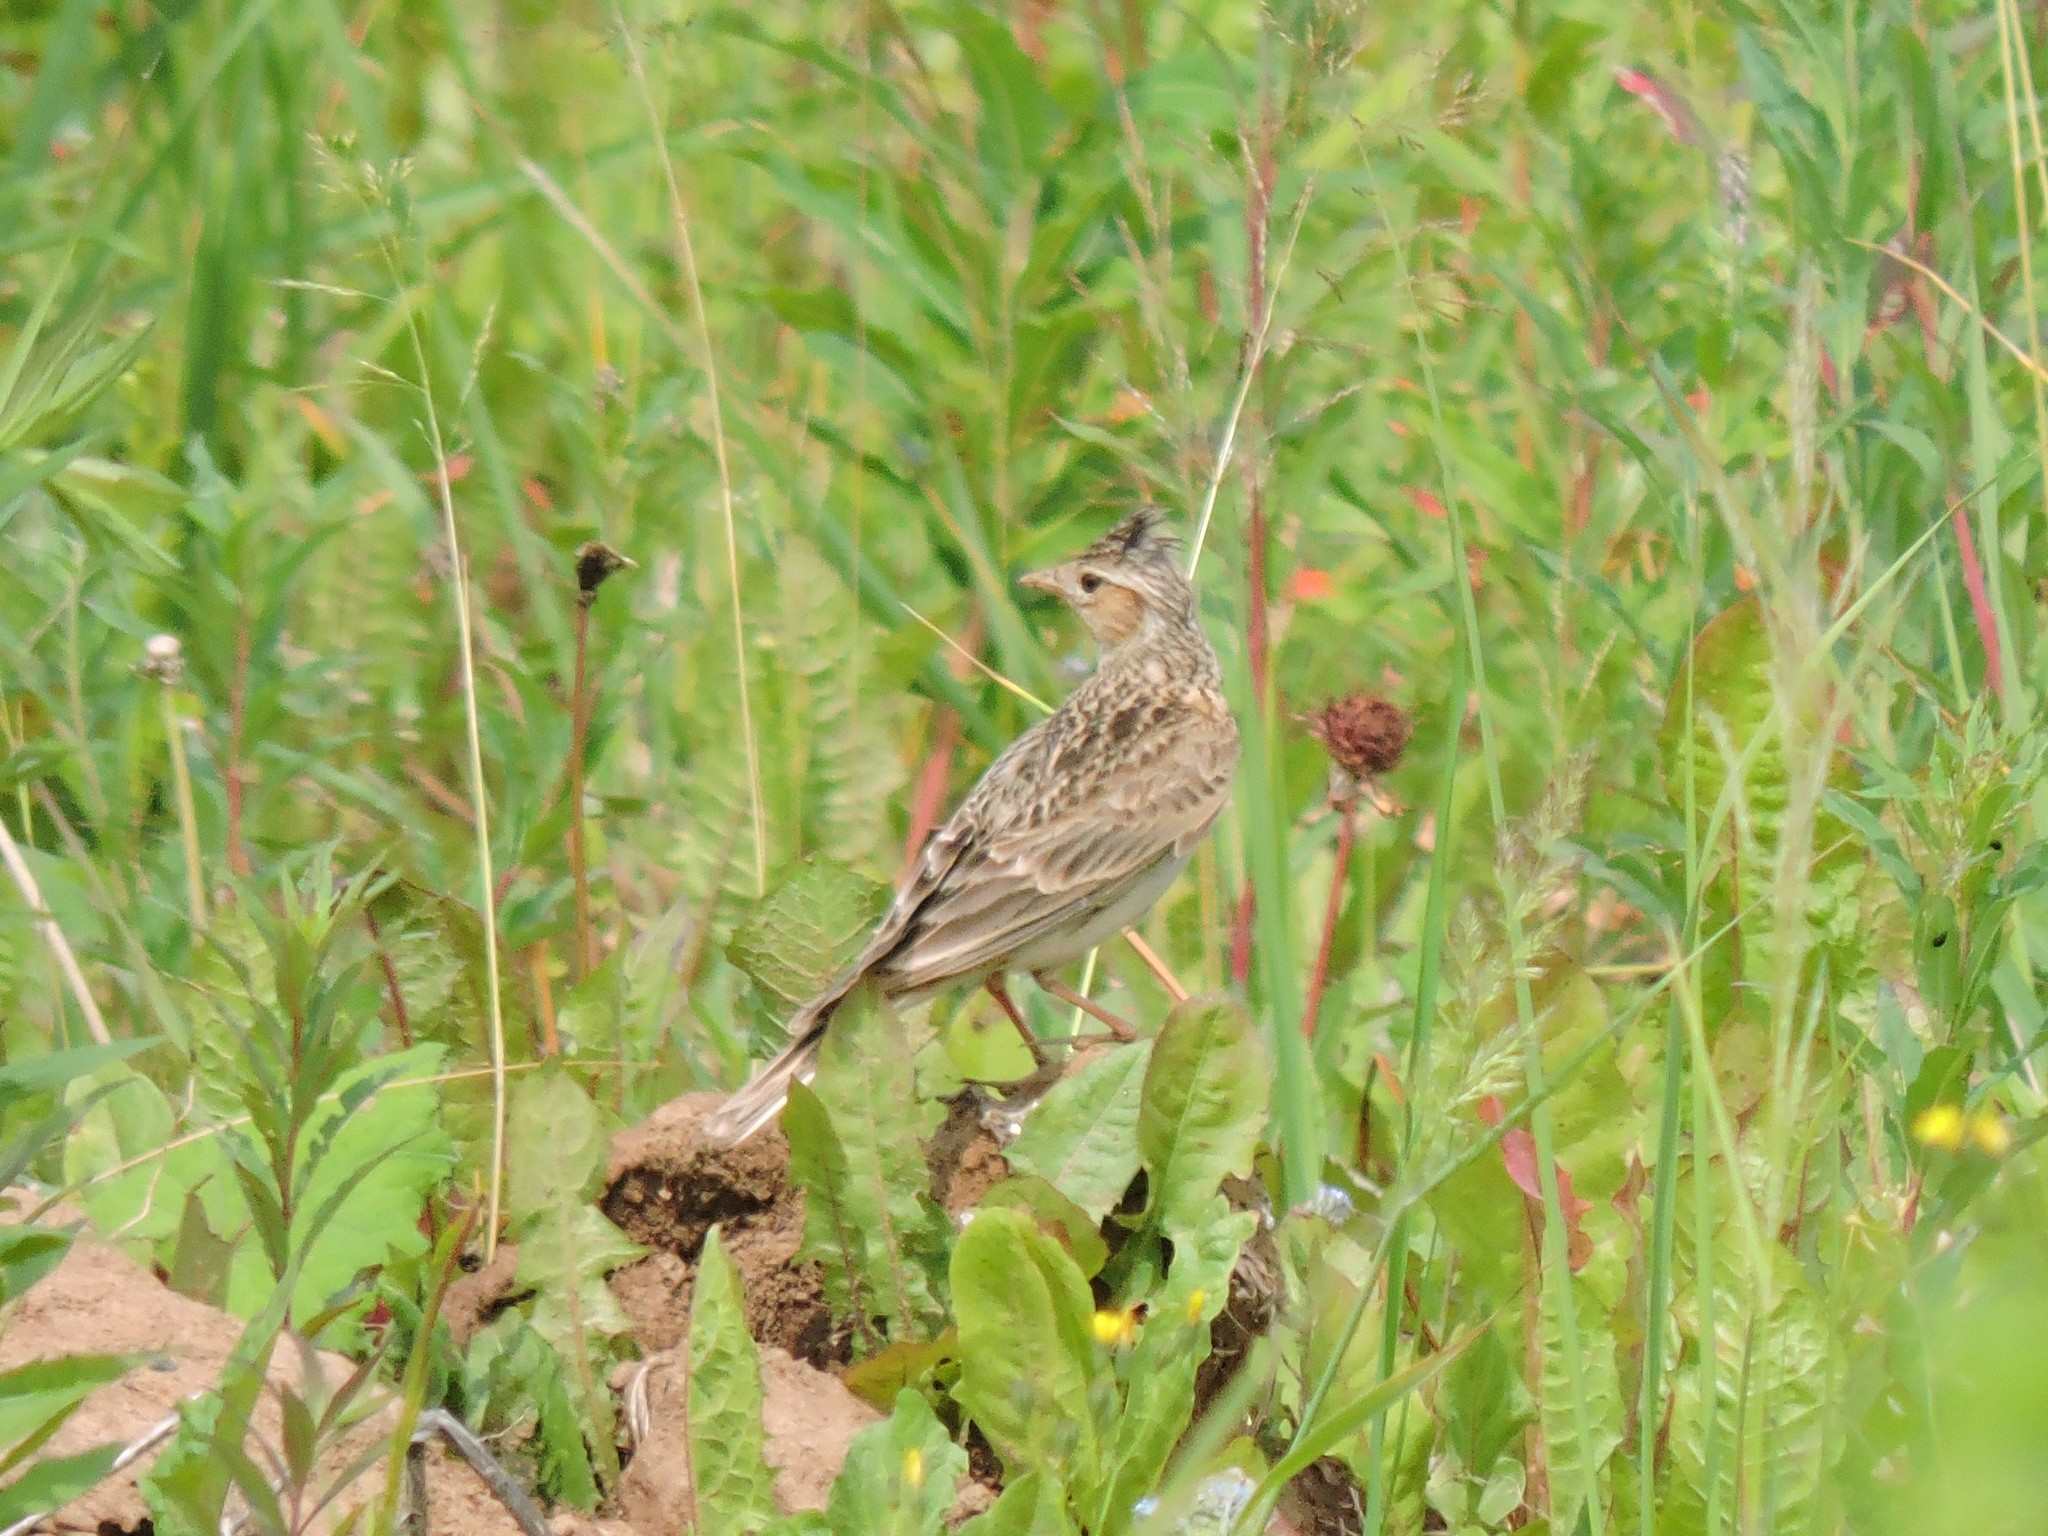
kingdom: Animalia
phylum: Chordata
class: Aves
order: Passeriformes
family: Alaudidae
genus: Alauda
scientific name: Alauda arvensis
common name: Eurasian skylark
